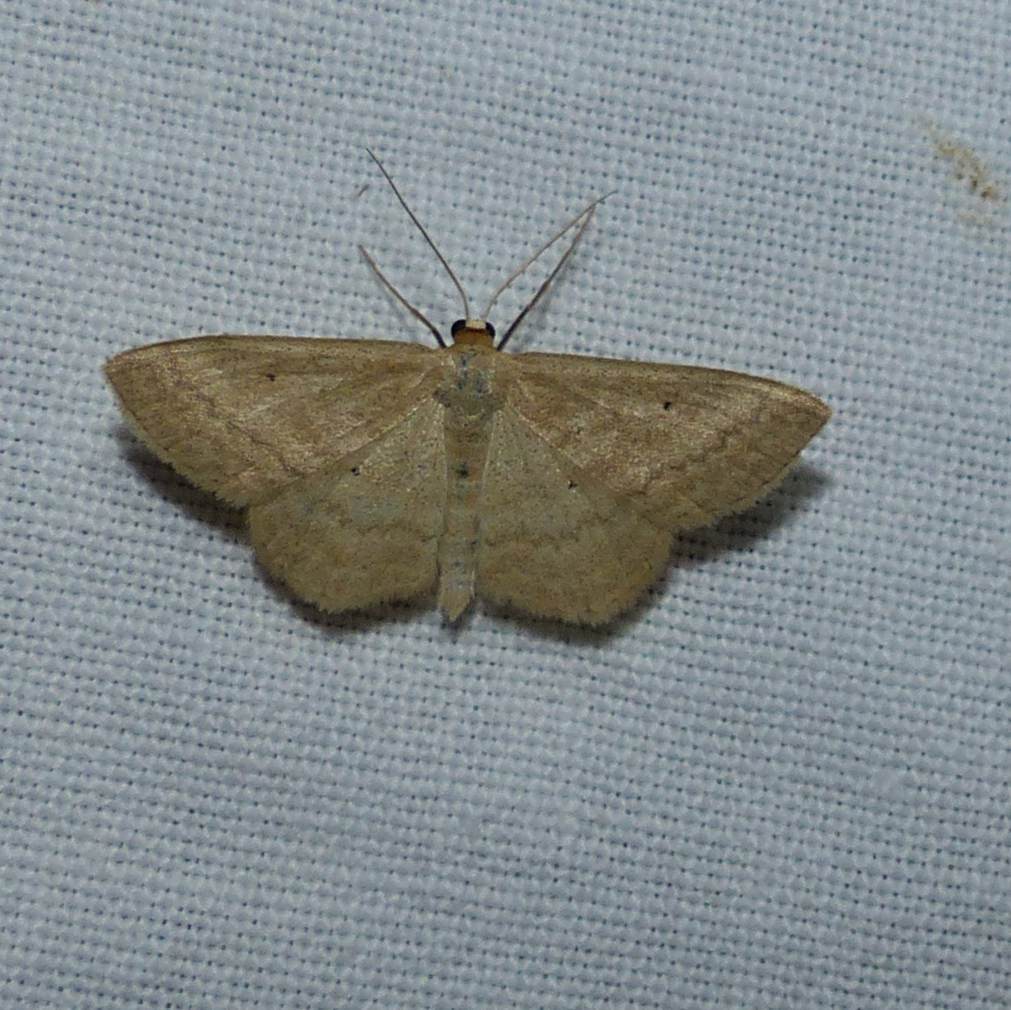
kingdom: Animalia
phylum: Arthropoda
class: Insecta
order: Lepidoptera
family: Geometridae
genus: Scopula
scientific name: Scopula inductata
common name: Soft-lined wave
